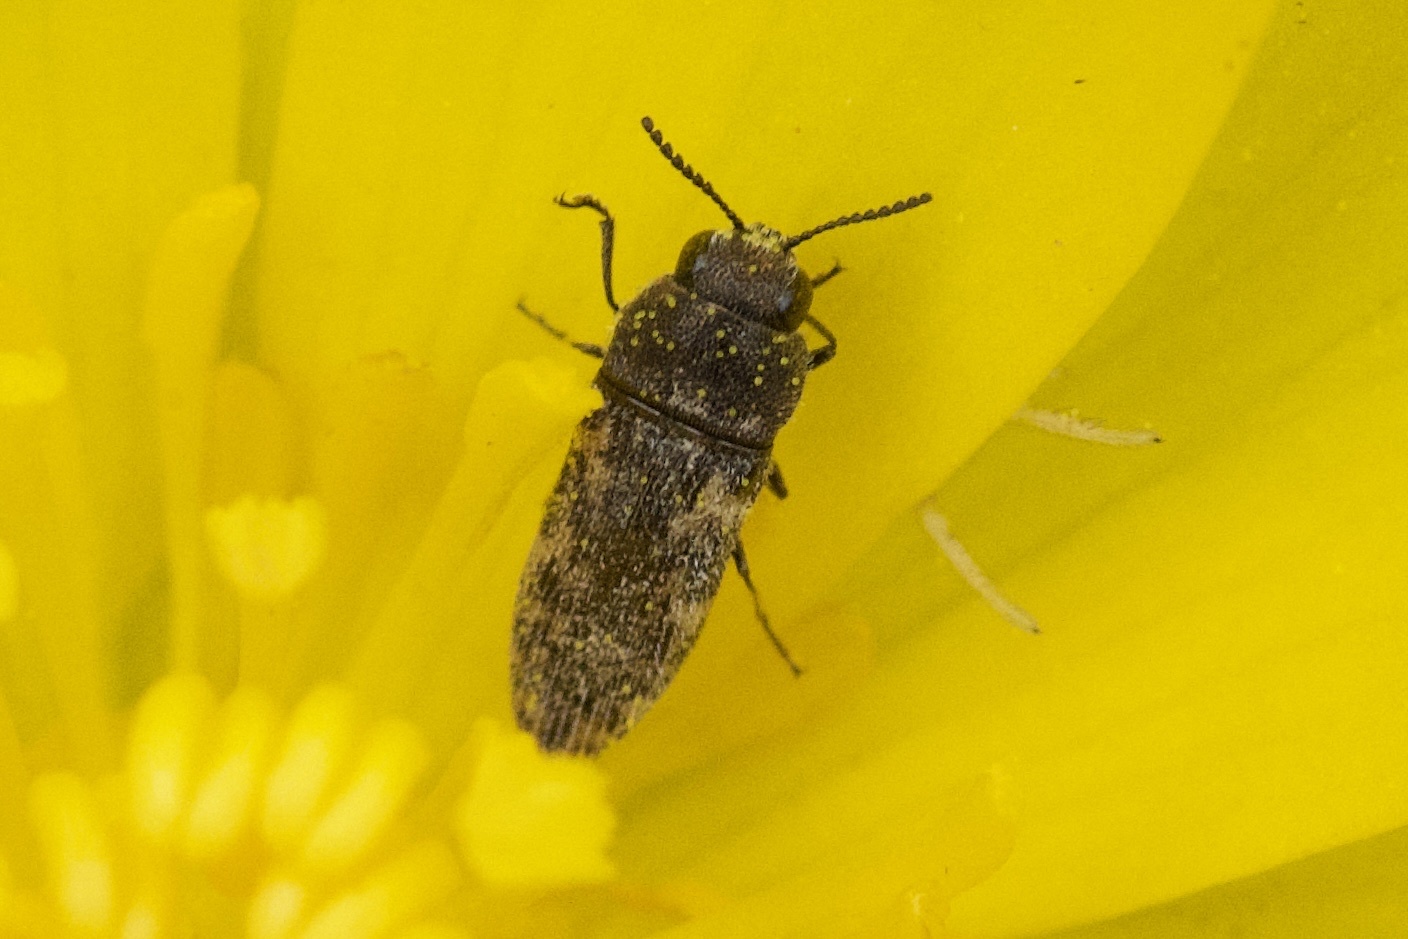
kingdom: Animalia
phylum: Arthropoda
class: Insecta
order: Coleoptera
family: Buprestidae
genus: Acmaeodera
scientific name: Acmaeodera neglecta
